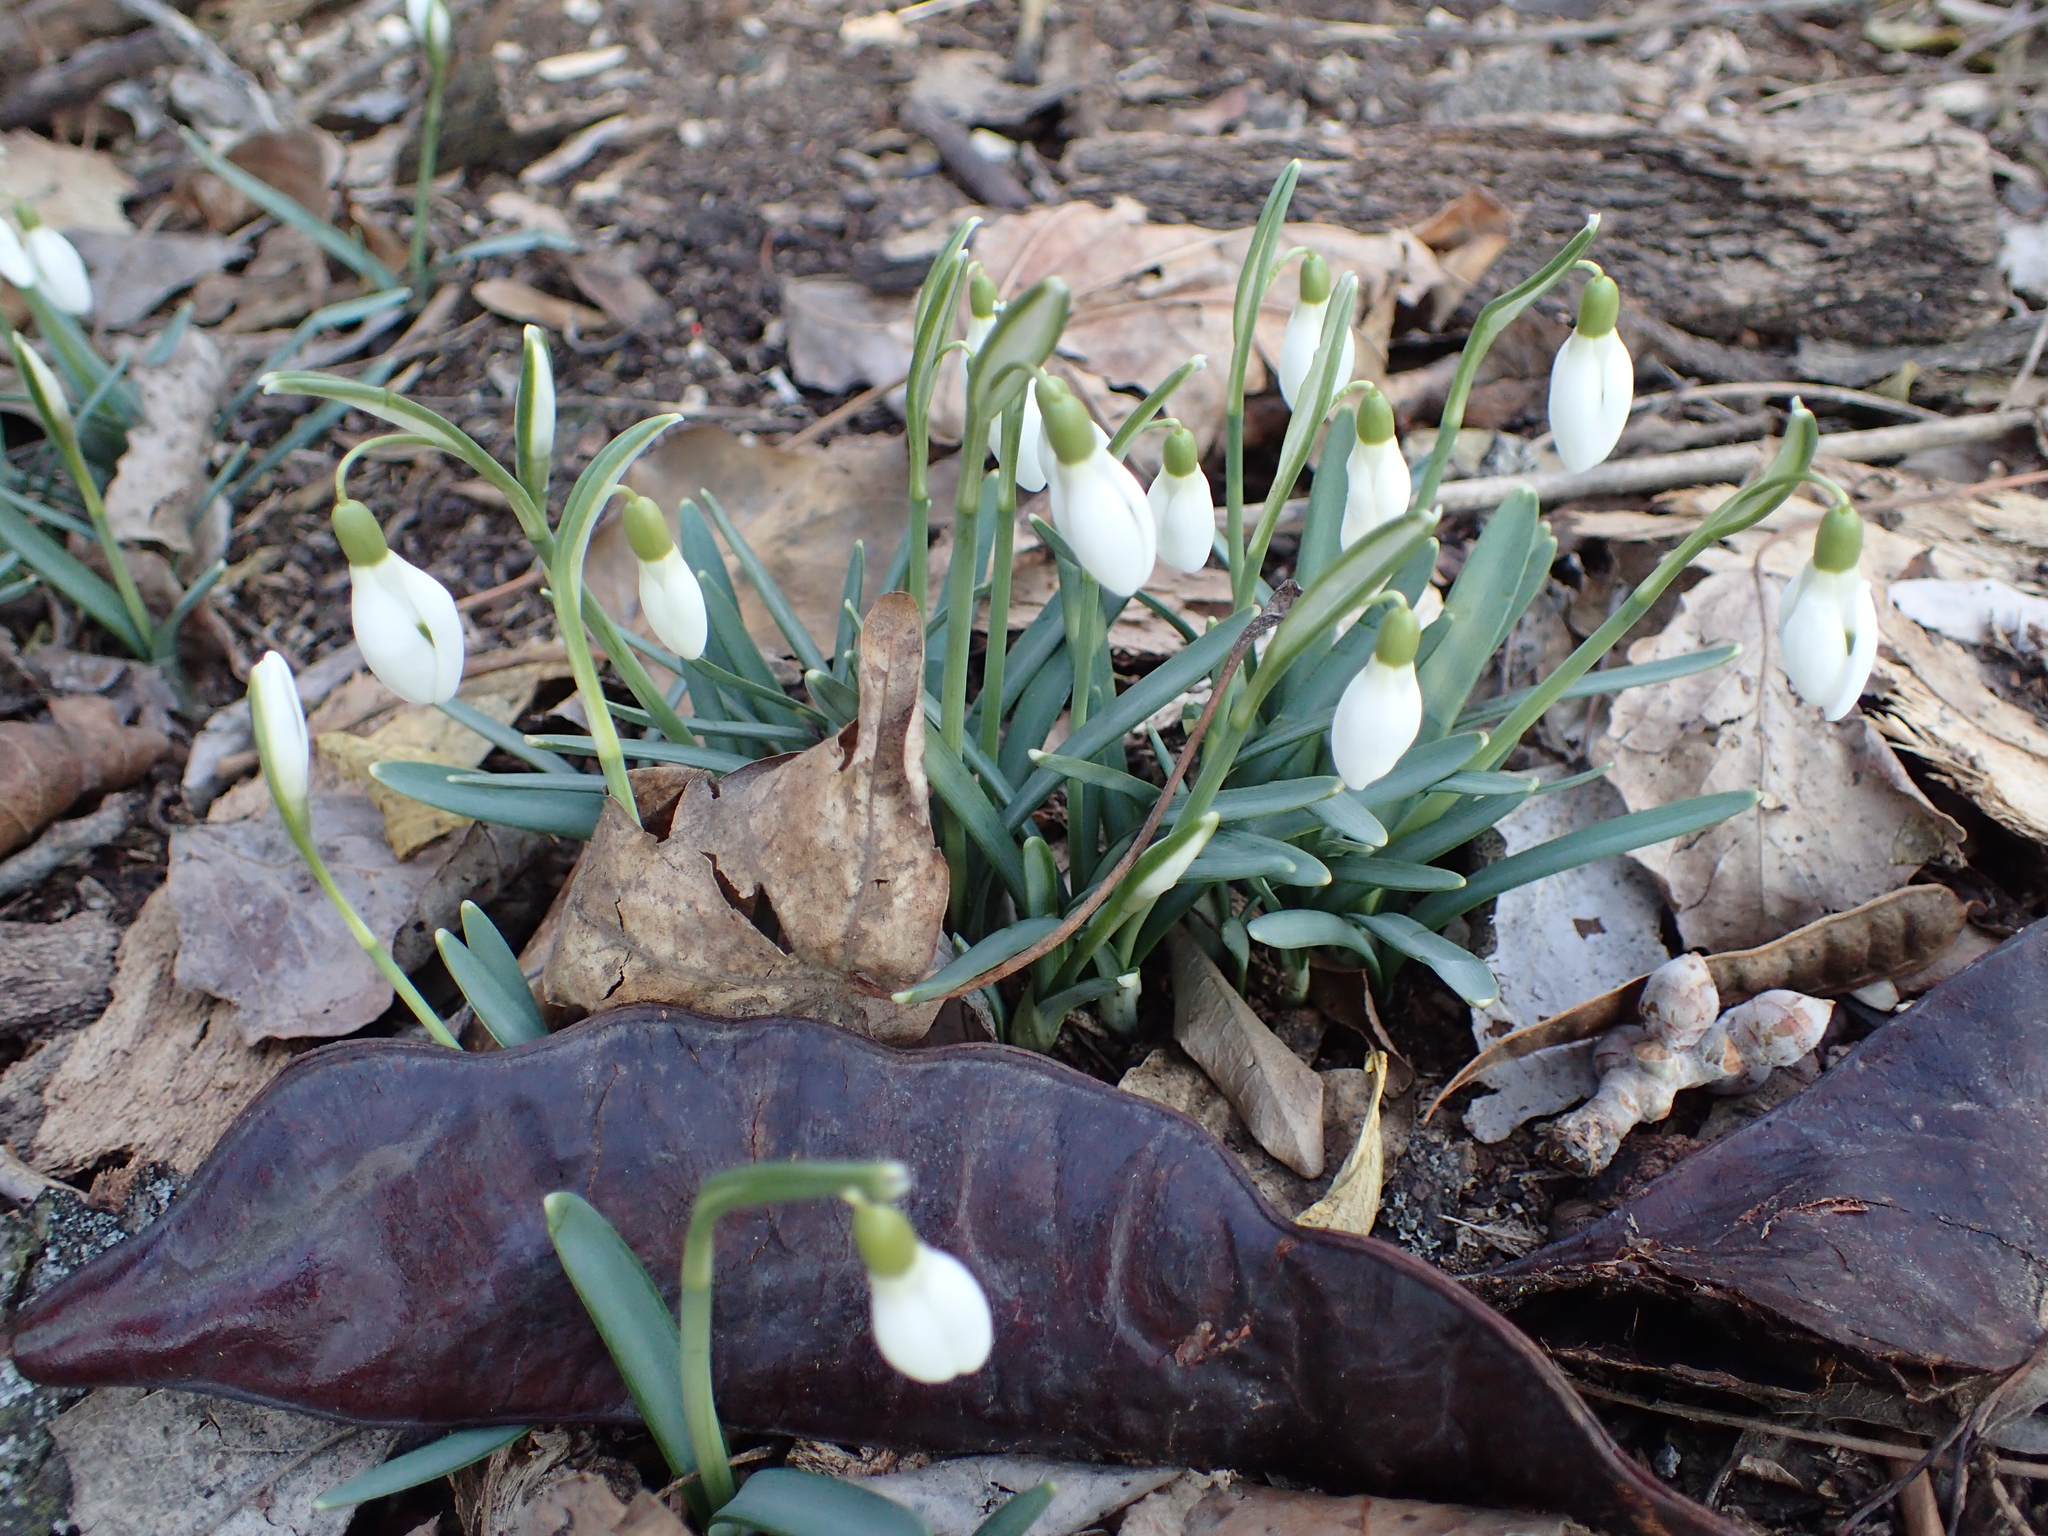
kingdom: Plantae
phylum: Tracheophyta
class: Liliopsida
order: Asparagales
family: Amaryllidaceae
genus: Galanthus
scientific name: Galanthus nivalis
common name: Snowdrop
